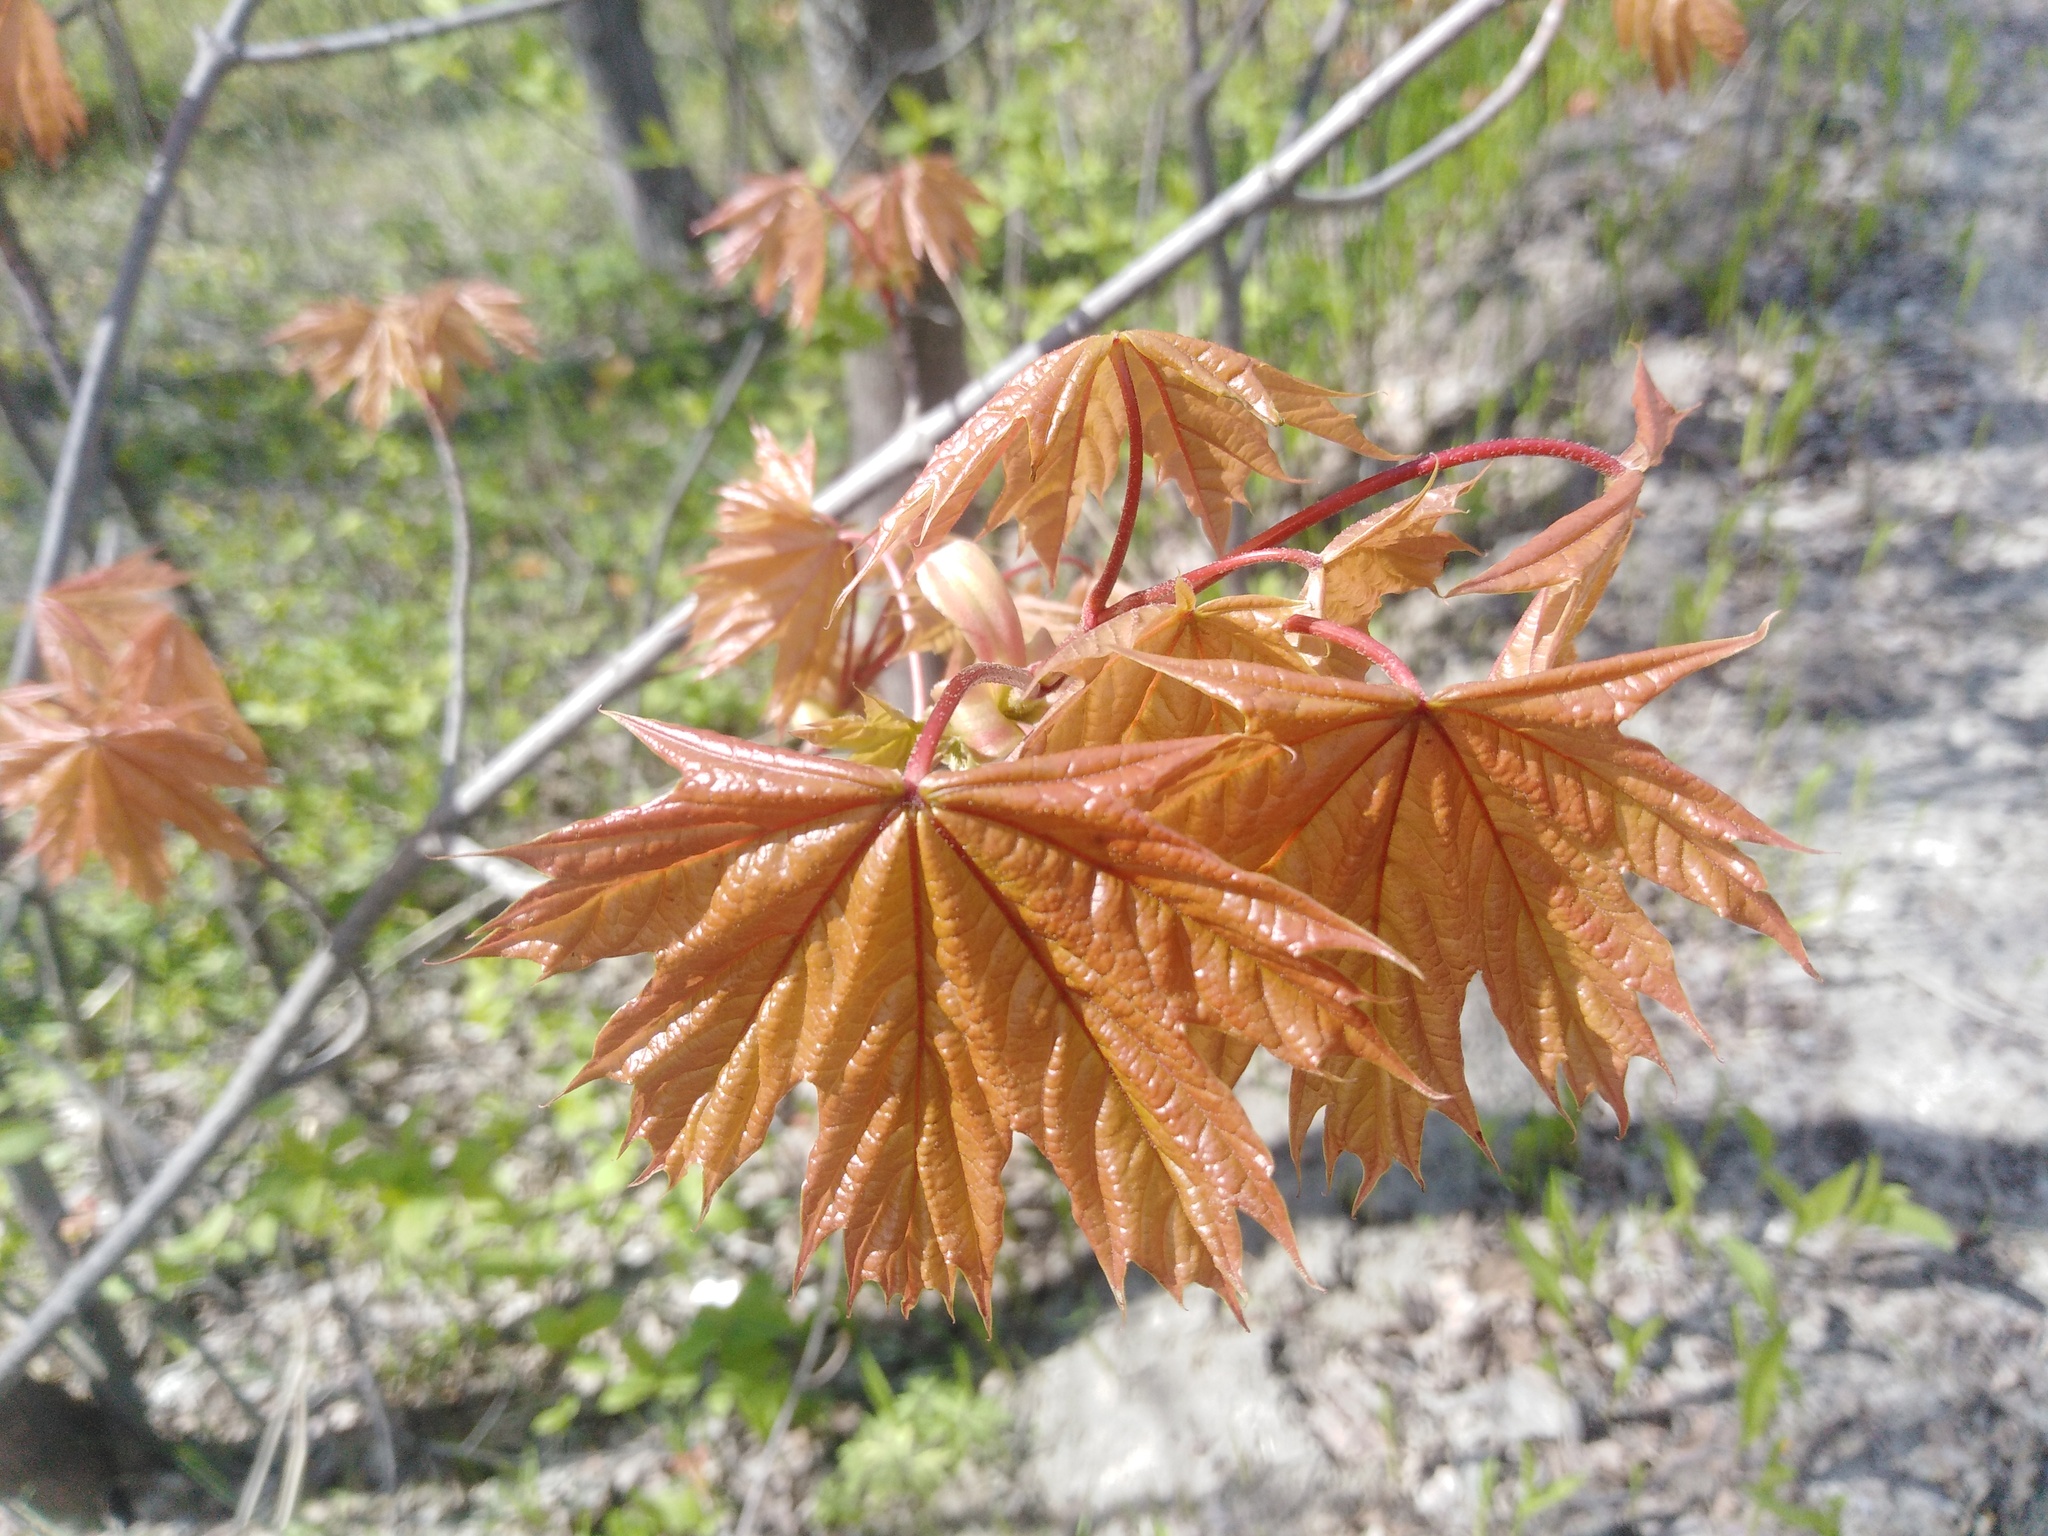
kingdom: Plantae
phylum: Tracheophyta
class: Magnoliopsida
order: Sapindales
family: Sapindaceae
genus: Acer
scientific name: Acer platanoides
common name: Norway maple
